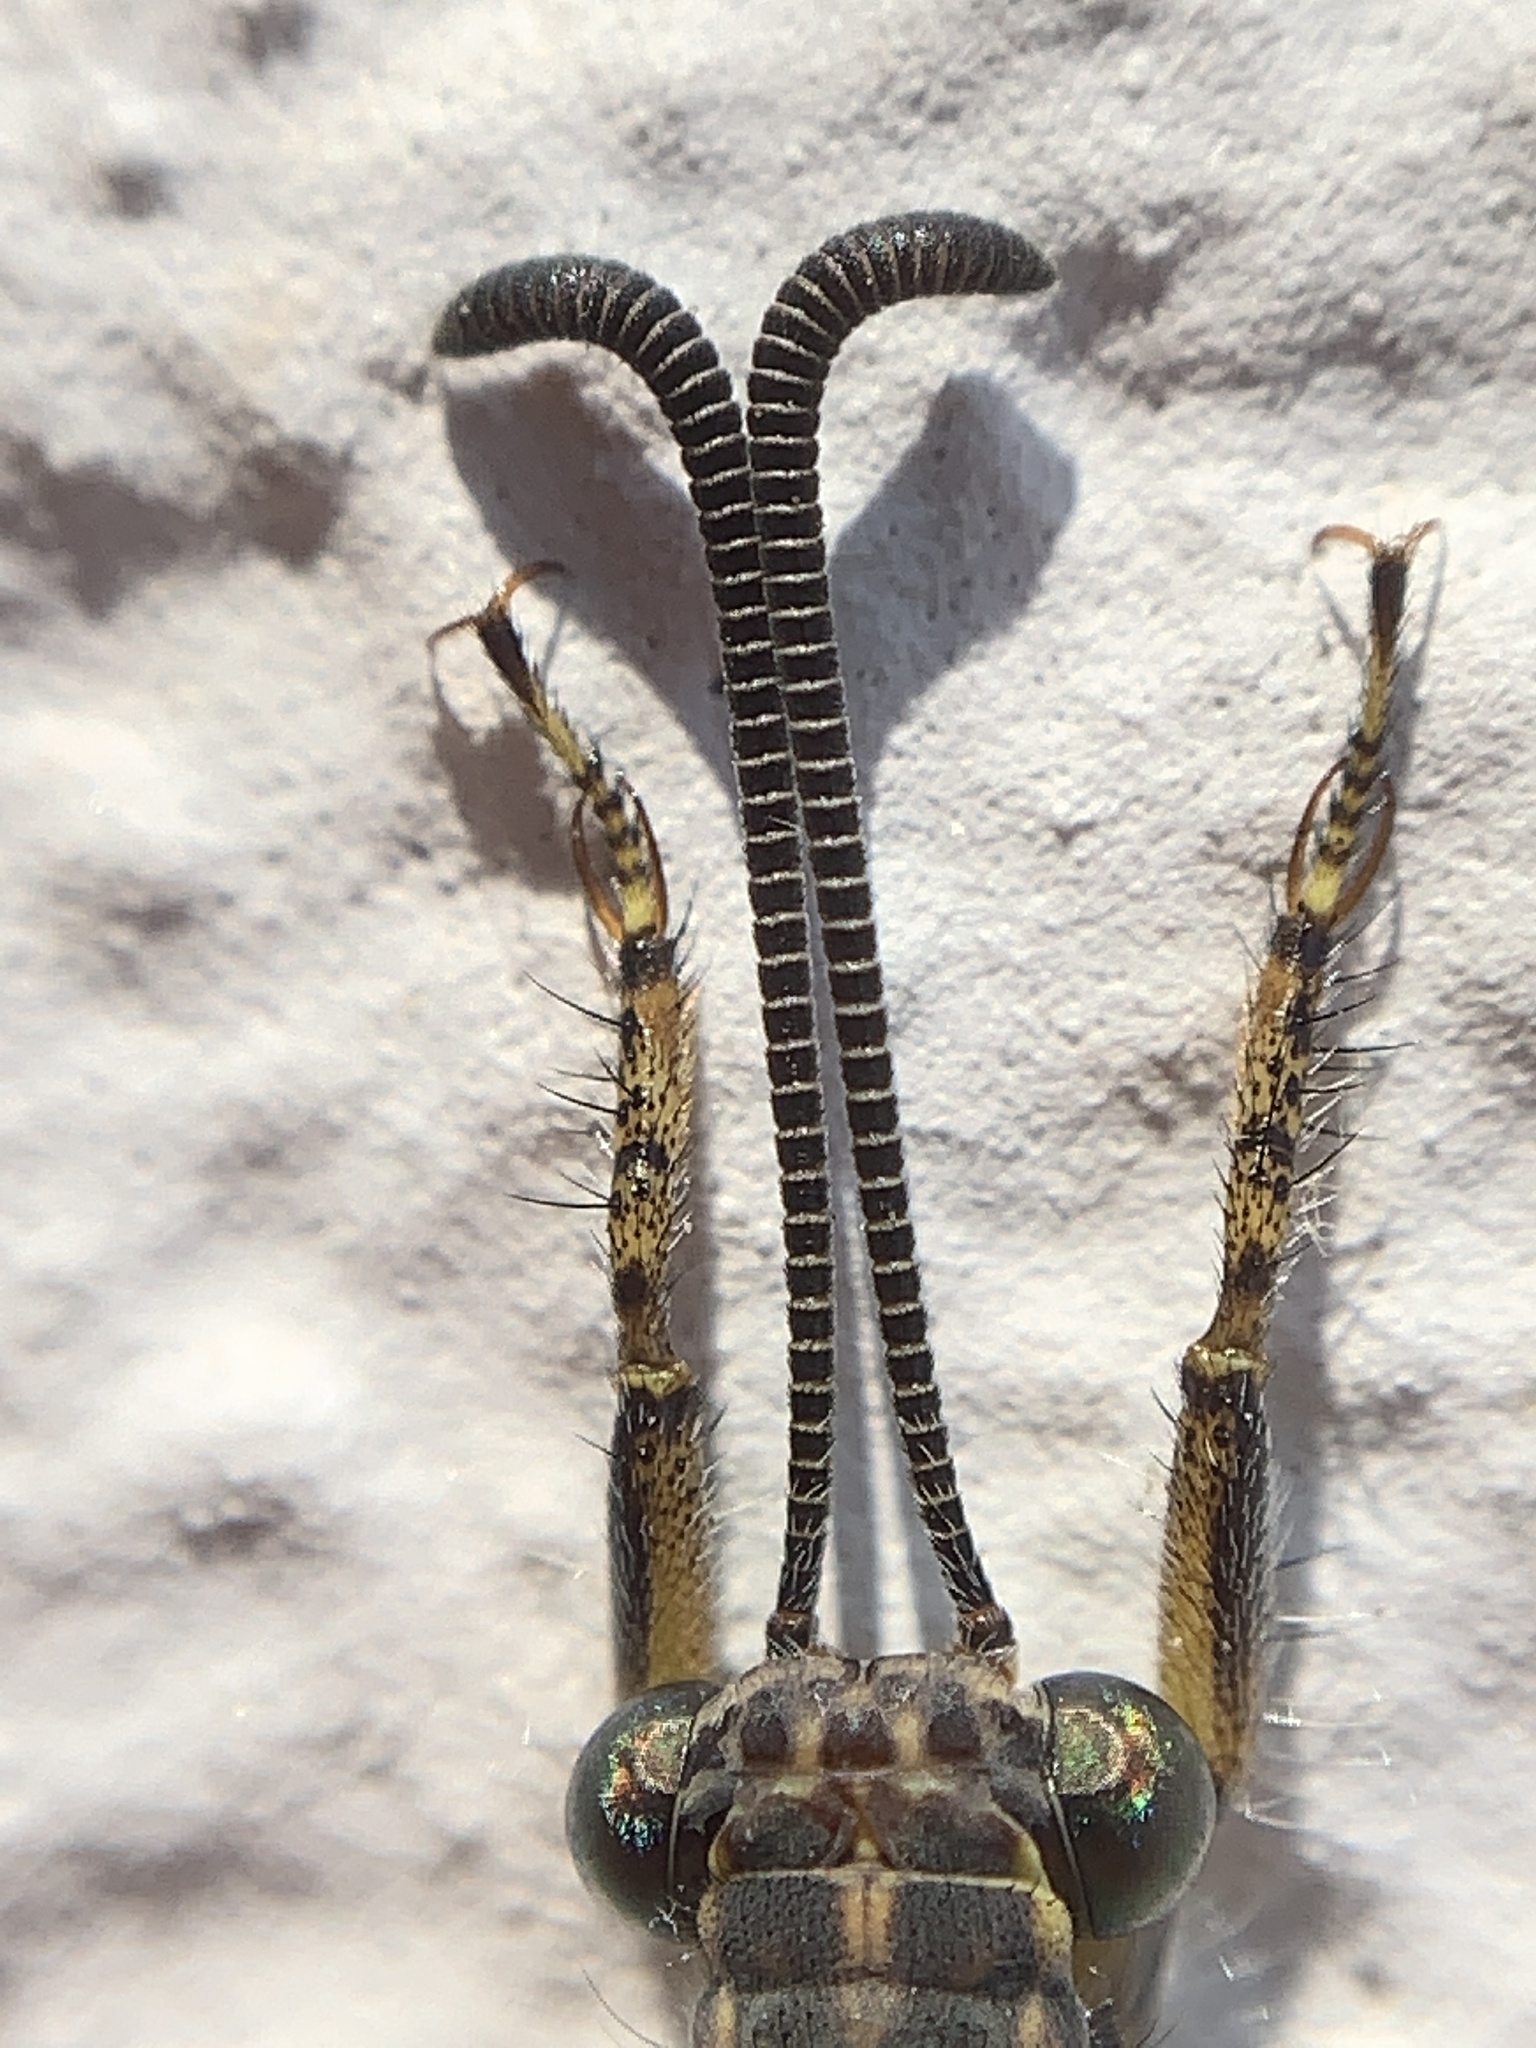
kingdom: Animalia
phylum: Arthropoda
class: Insecta
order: Neuroptera
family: Myrmeleontidae
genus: Distoleon
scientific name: Distoleon tetragrammicus
